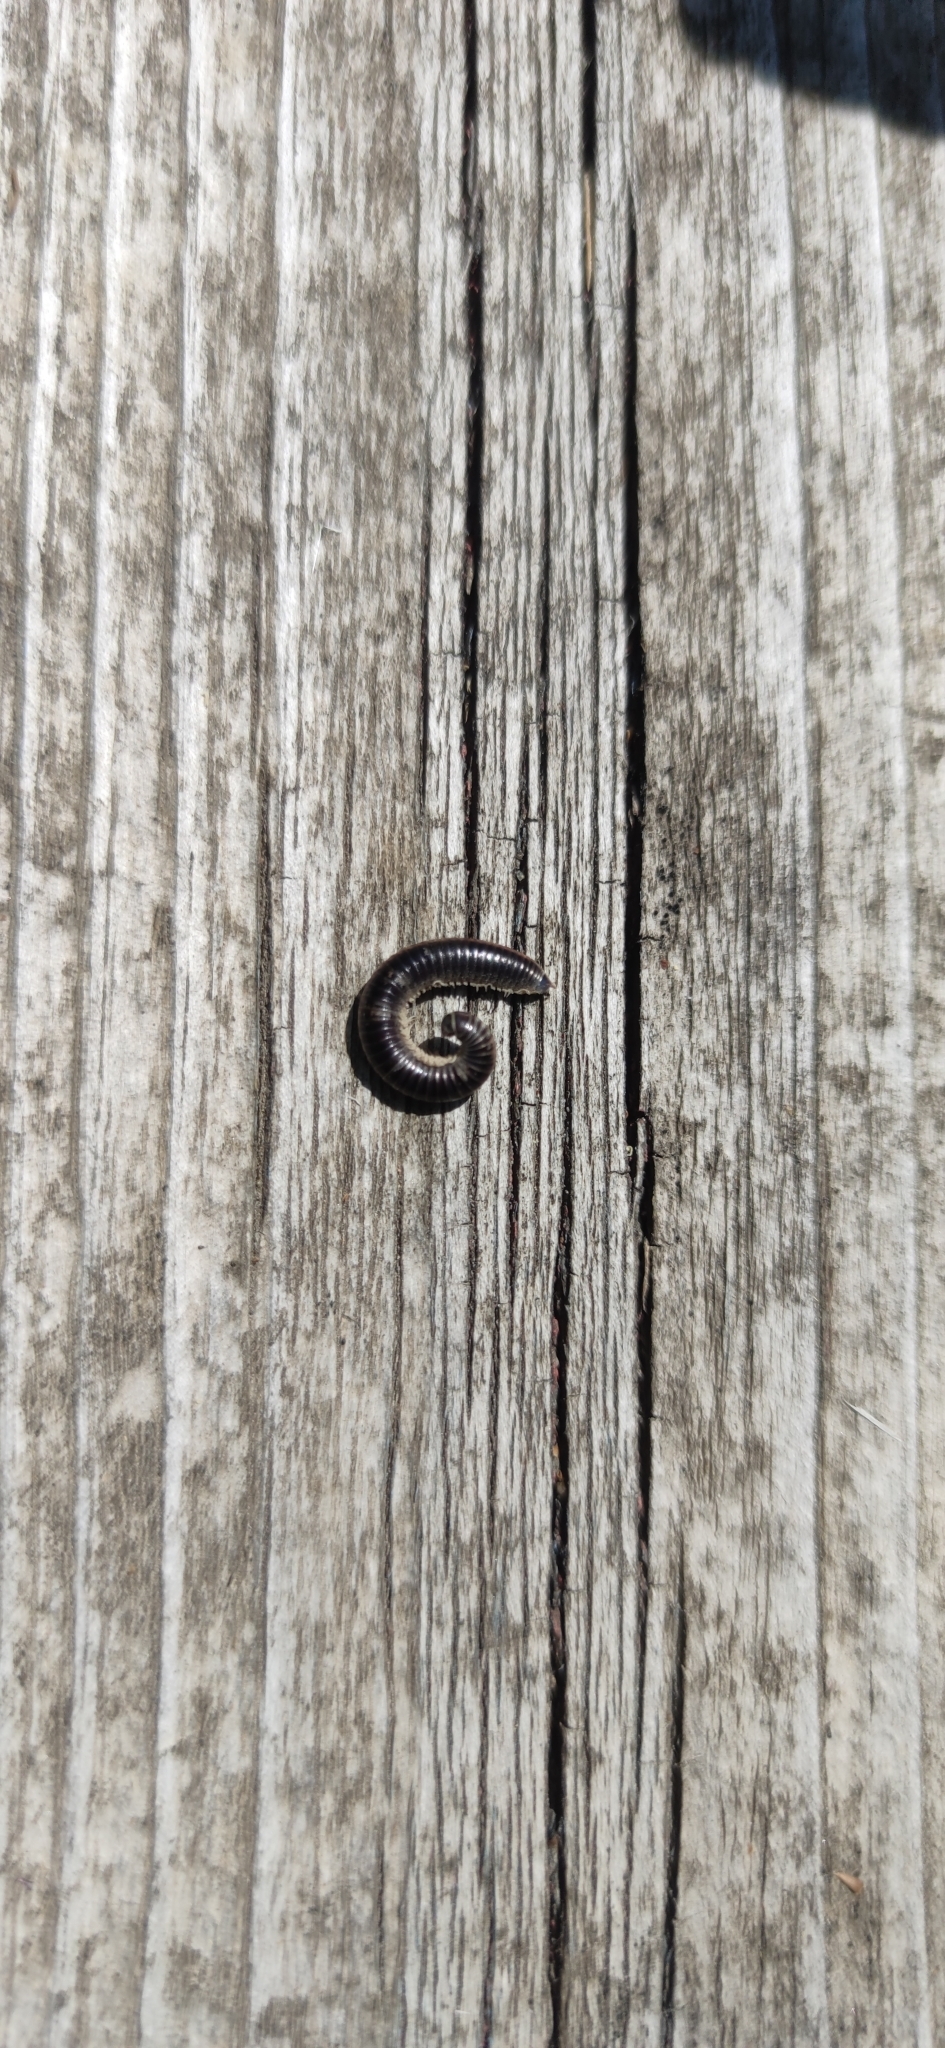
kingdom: Animalia
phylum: Arthropoda
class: Diplopoda
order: Julida
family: Julidae
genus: Ommatoiulus
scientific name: Ommatoiulus sabulosus
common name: Striped millipede
